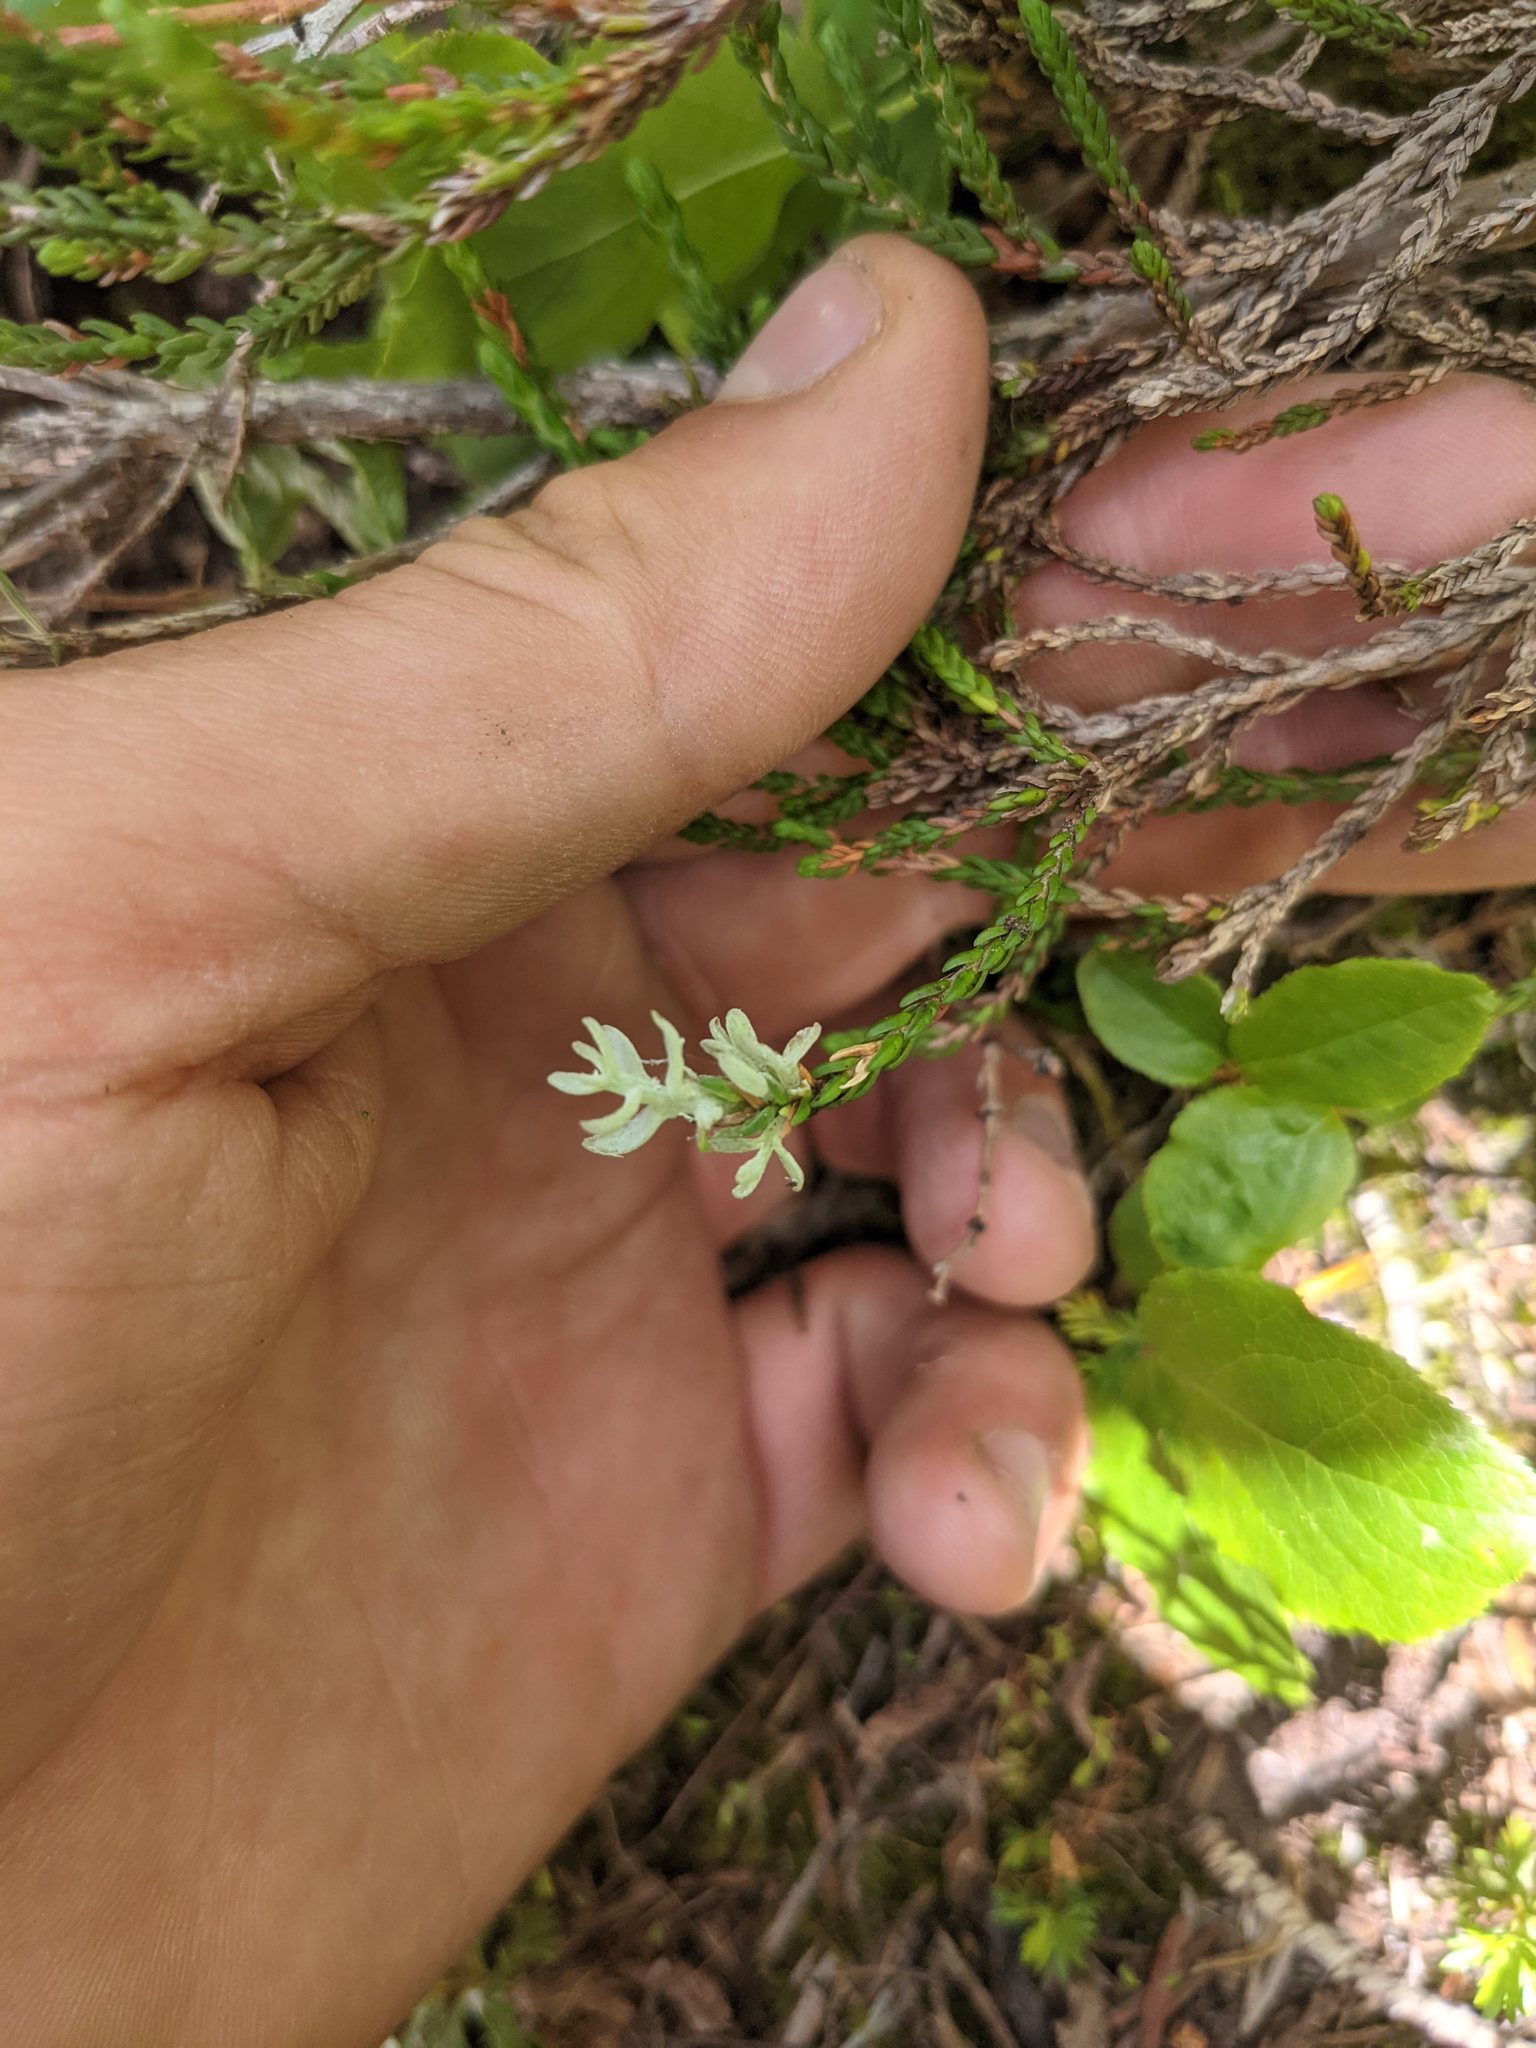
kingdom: Fungi
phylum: Basidiomycota
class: Exobasidiomycetes
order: Exobasidiales
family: Exobasidiaceae
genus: Exobasidium
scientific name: Exobasidium cassiopes
